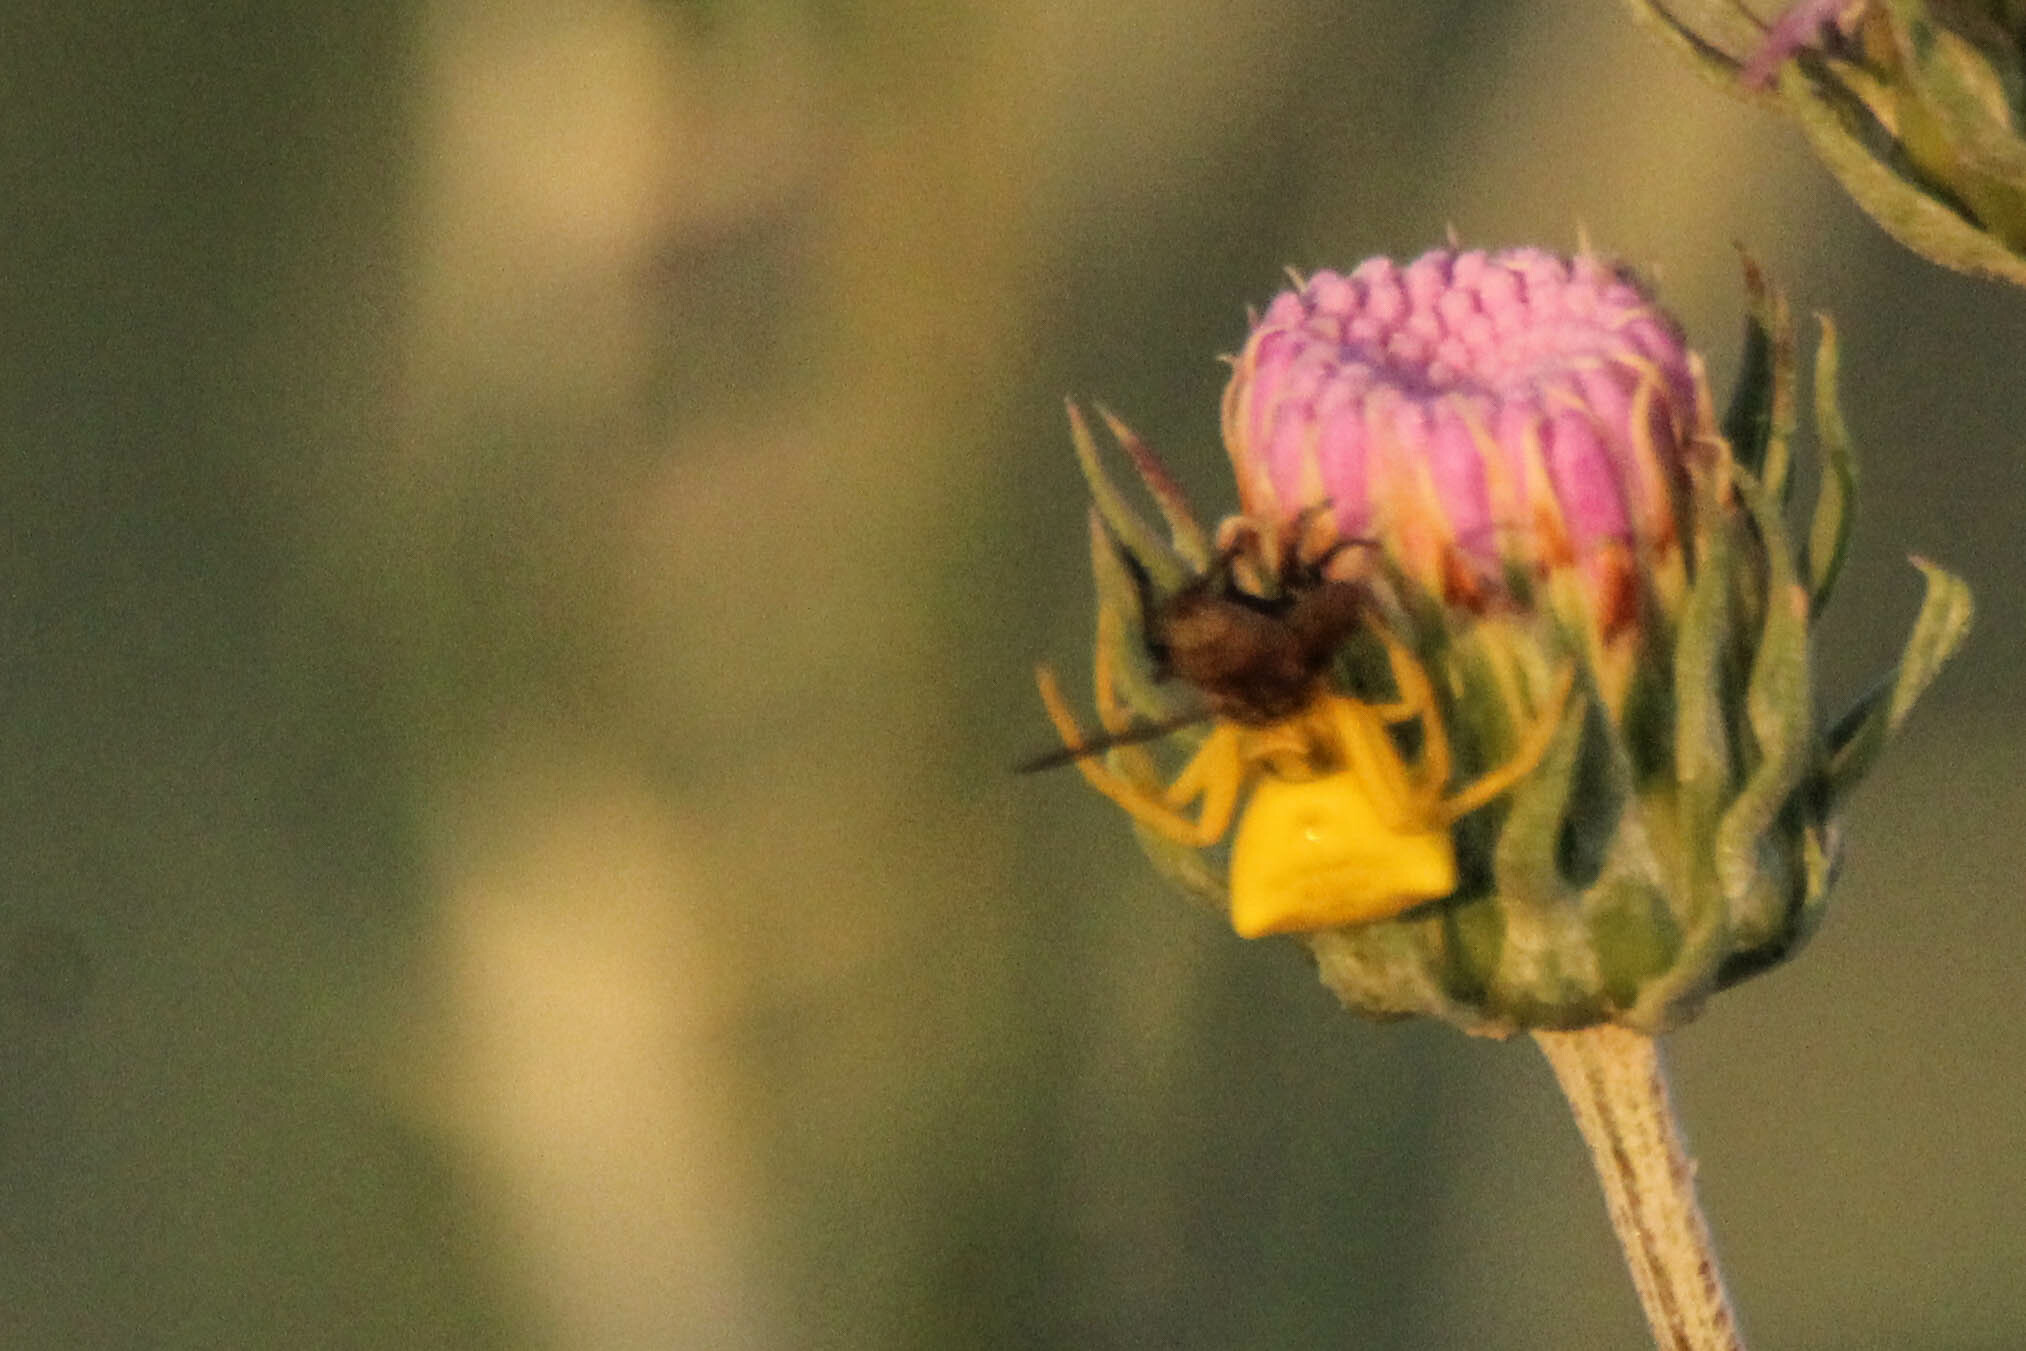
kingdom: Animalia
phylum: Arthropoda
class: Arachnida
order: Araneae
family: Thomisidae
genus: Thomisus
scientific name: Thomisus onustus
